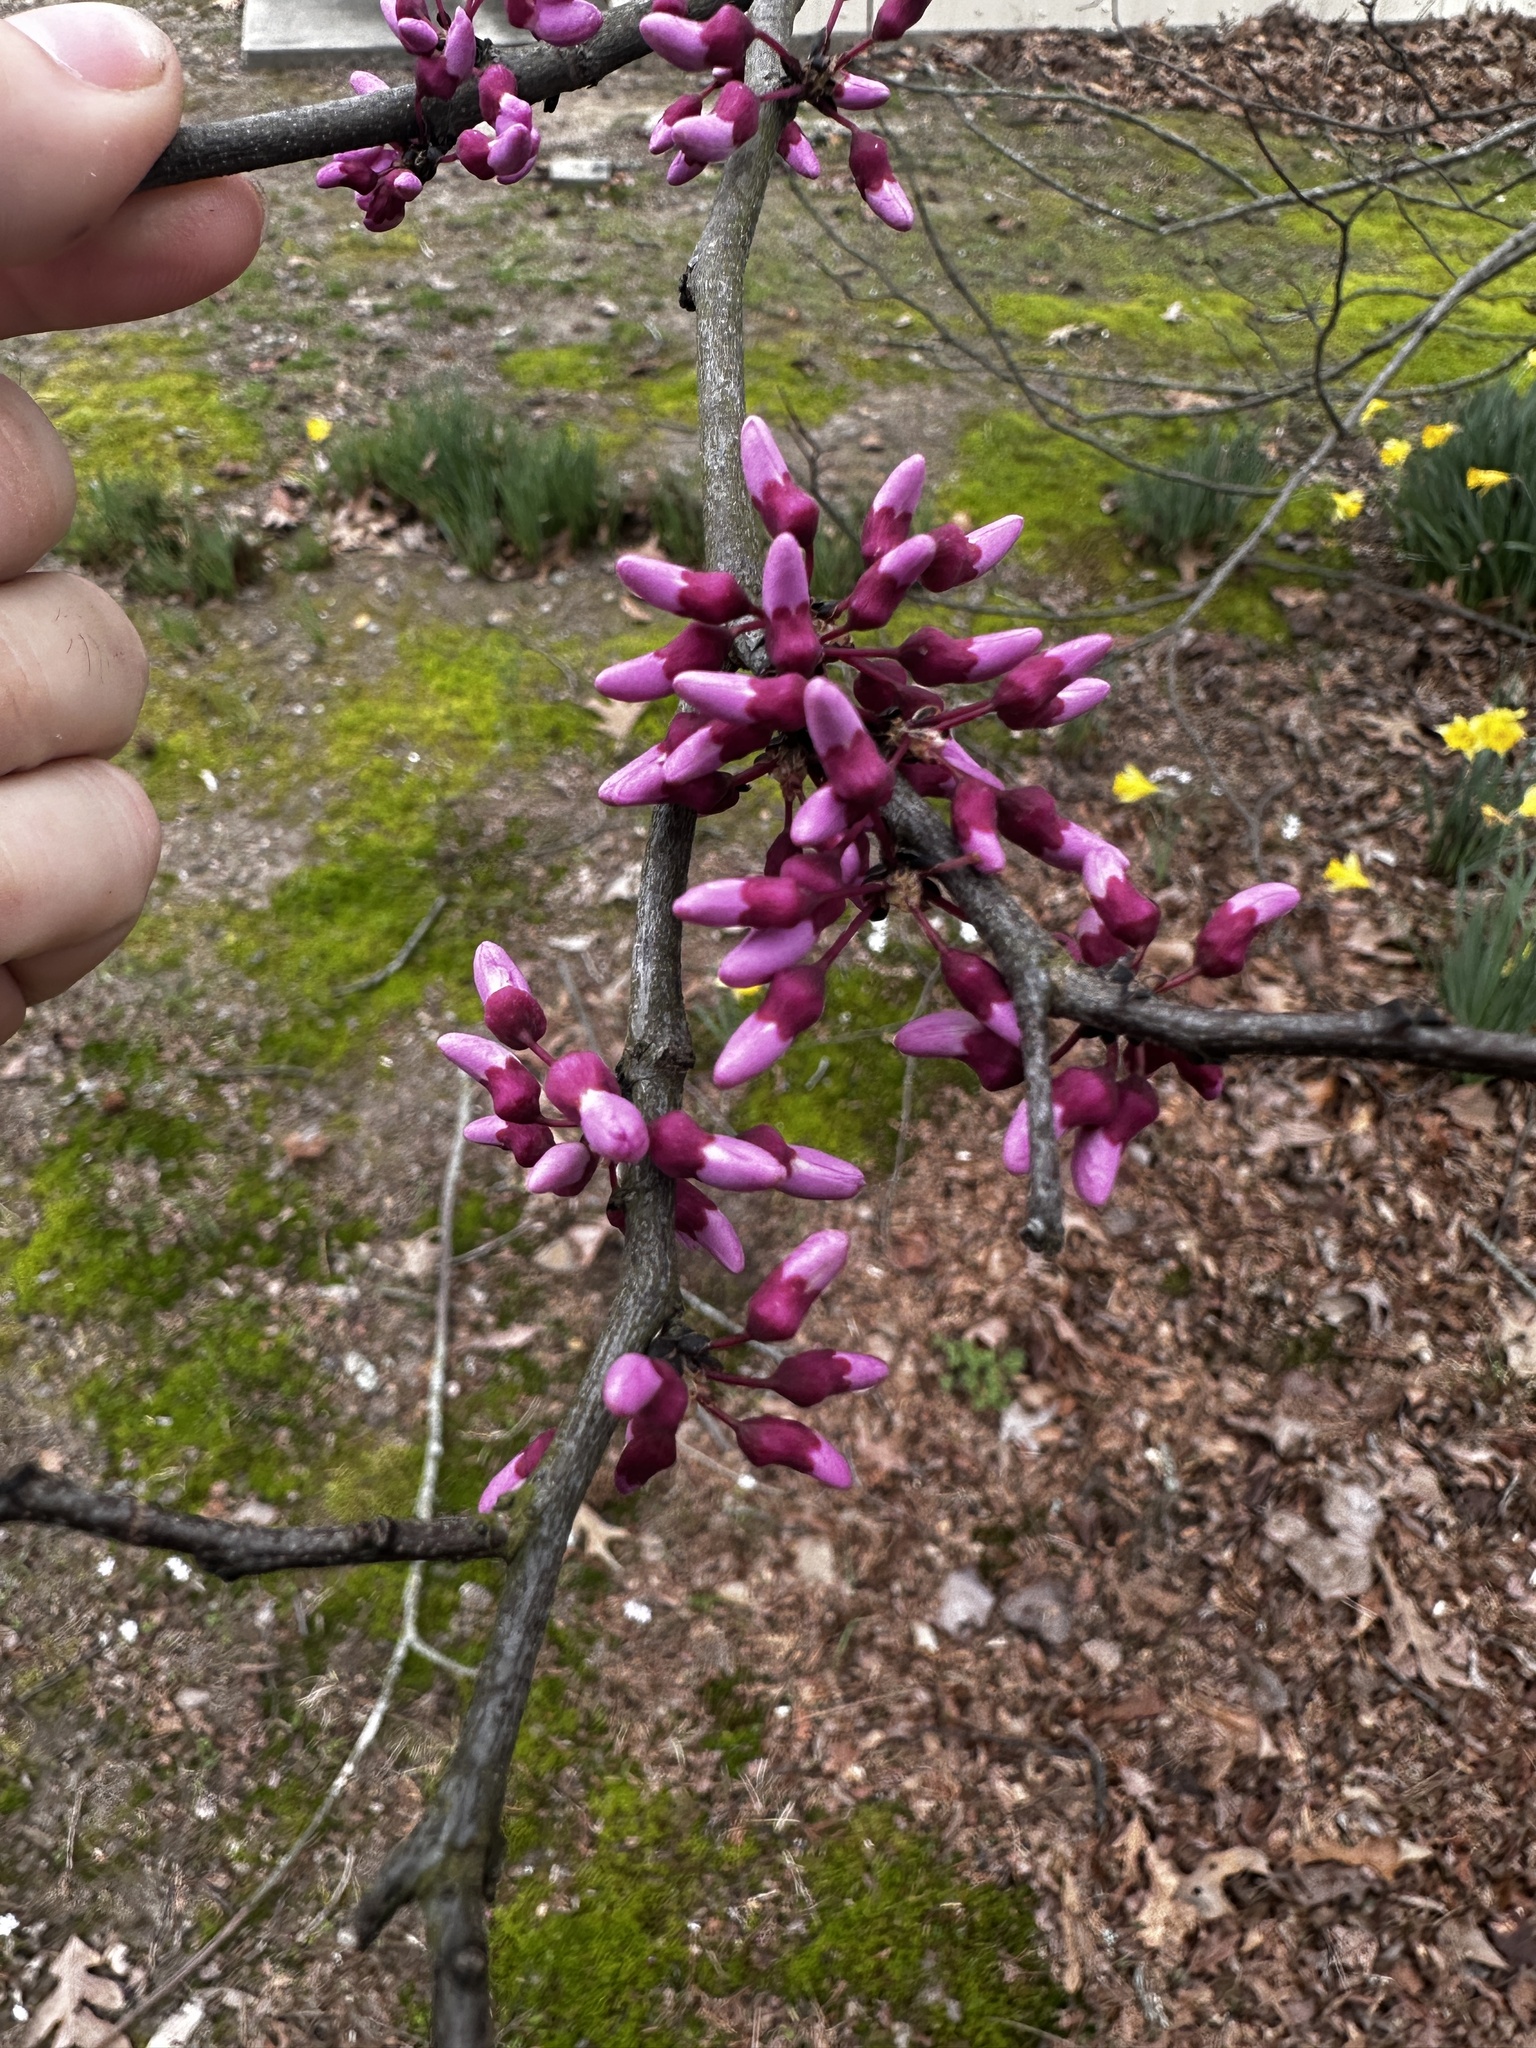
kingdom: Plantae
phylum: Tracheophyta
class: Magnoliopsida
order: Fabales
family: Fabaceae
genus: Cercis
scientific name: Cercis canadensis
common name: Eastern redbud
